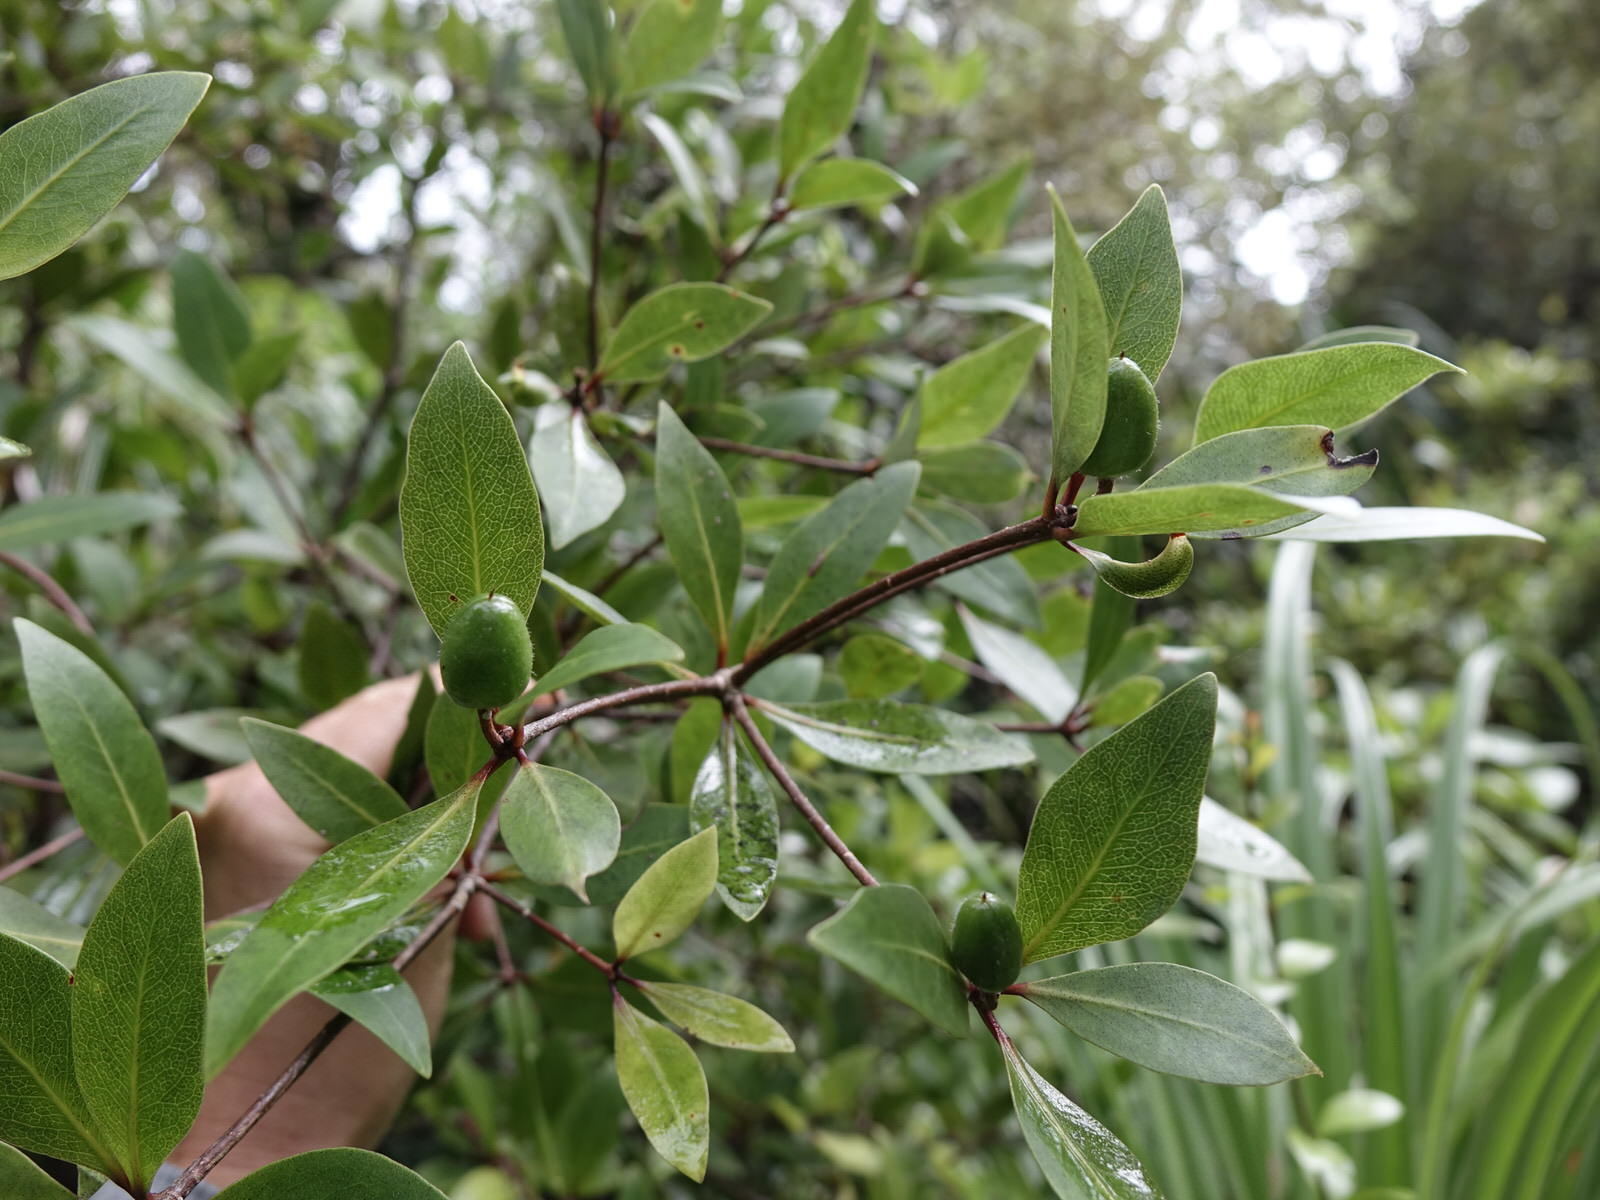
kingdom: Plantae
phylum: Tracheophyta
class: Magnoliopsida
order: Apiales
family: Pittosporaceae
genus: Pittosporum
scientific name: Pittosporum cornifolium
